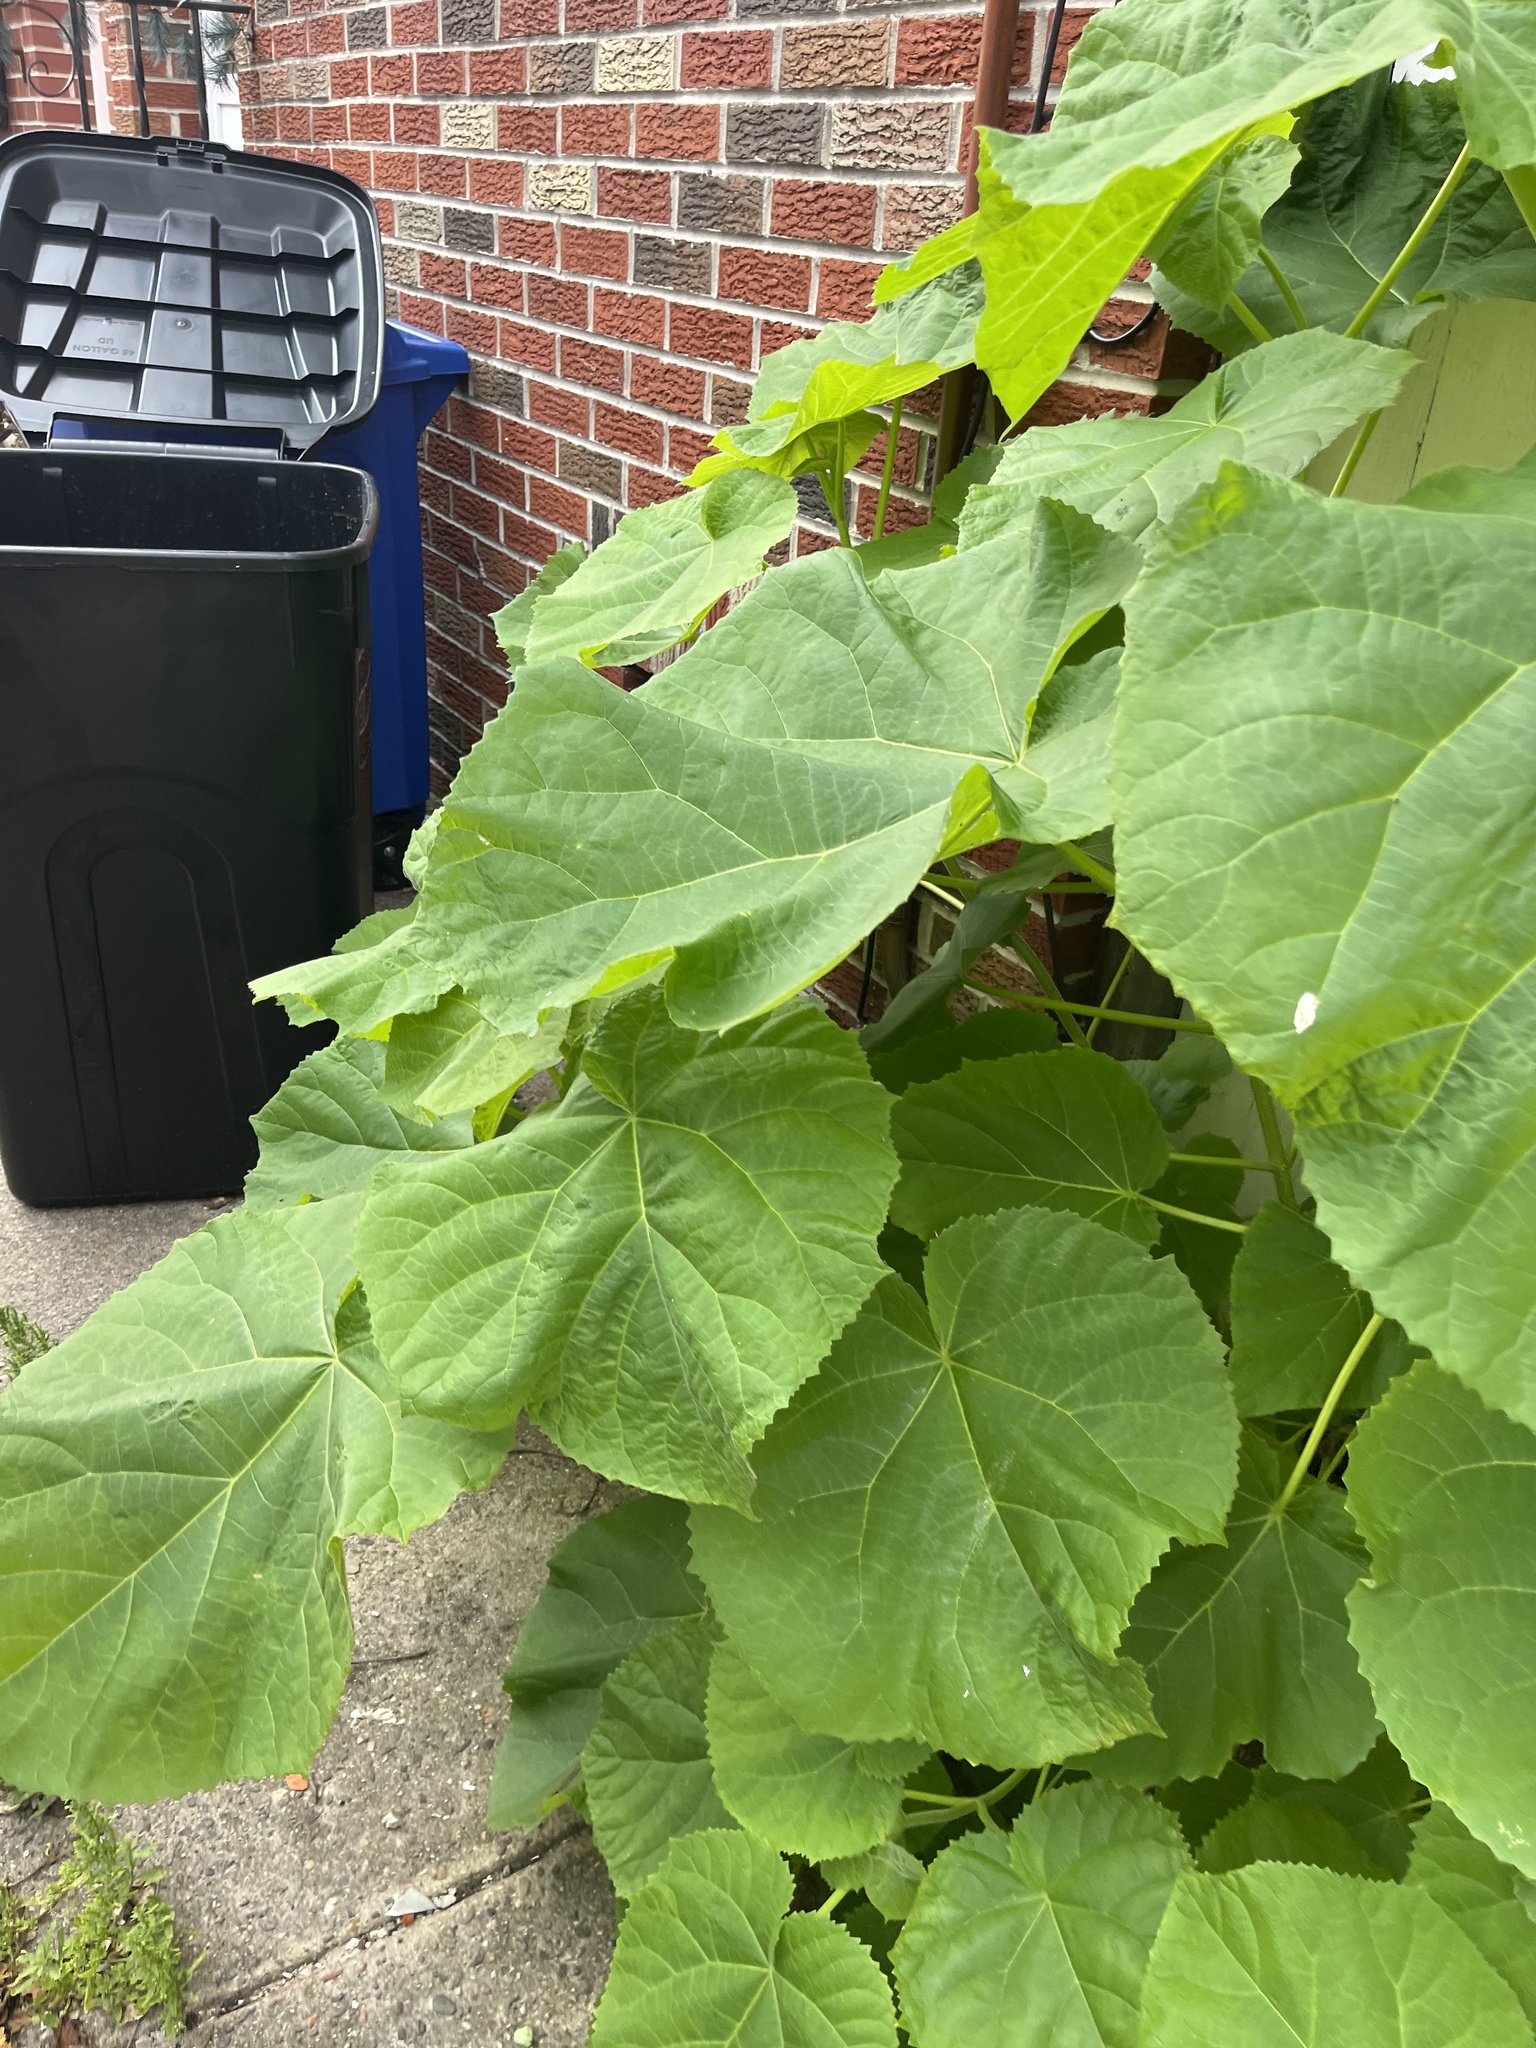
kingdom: Plantae
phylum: Tracheophyta
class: Magnoliopsida
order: Lamiales
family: Paulowniaceae
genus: Paulownia
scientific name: Paulownia tomentosa
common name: Foxglove-tree
